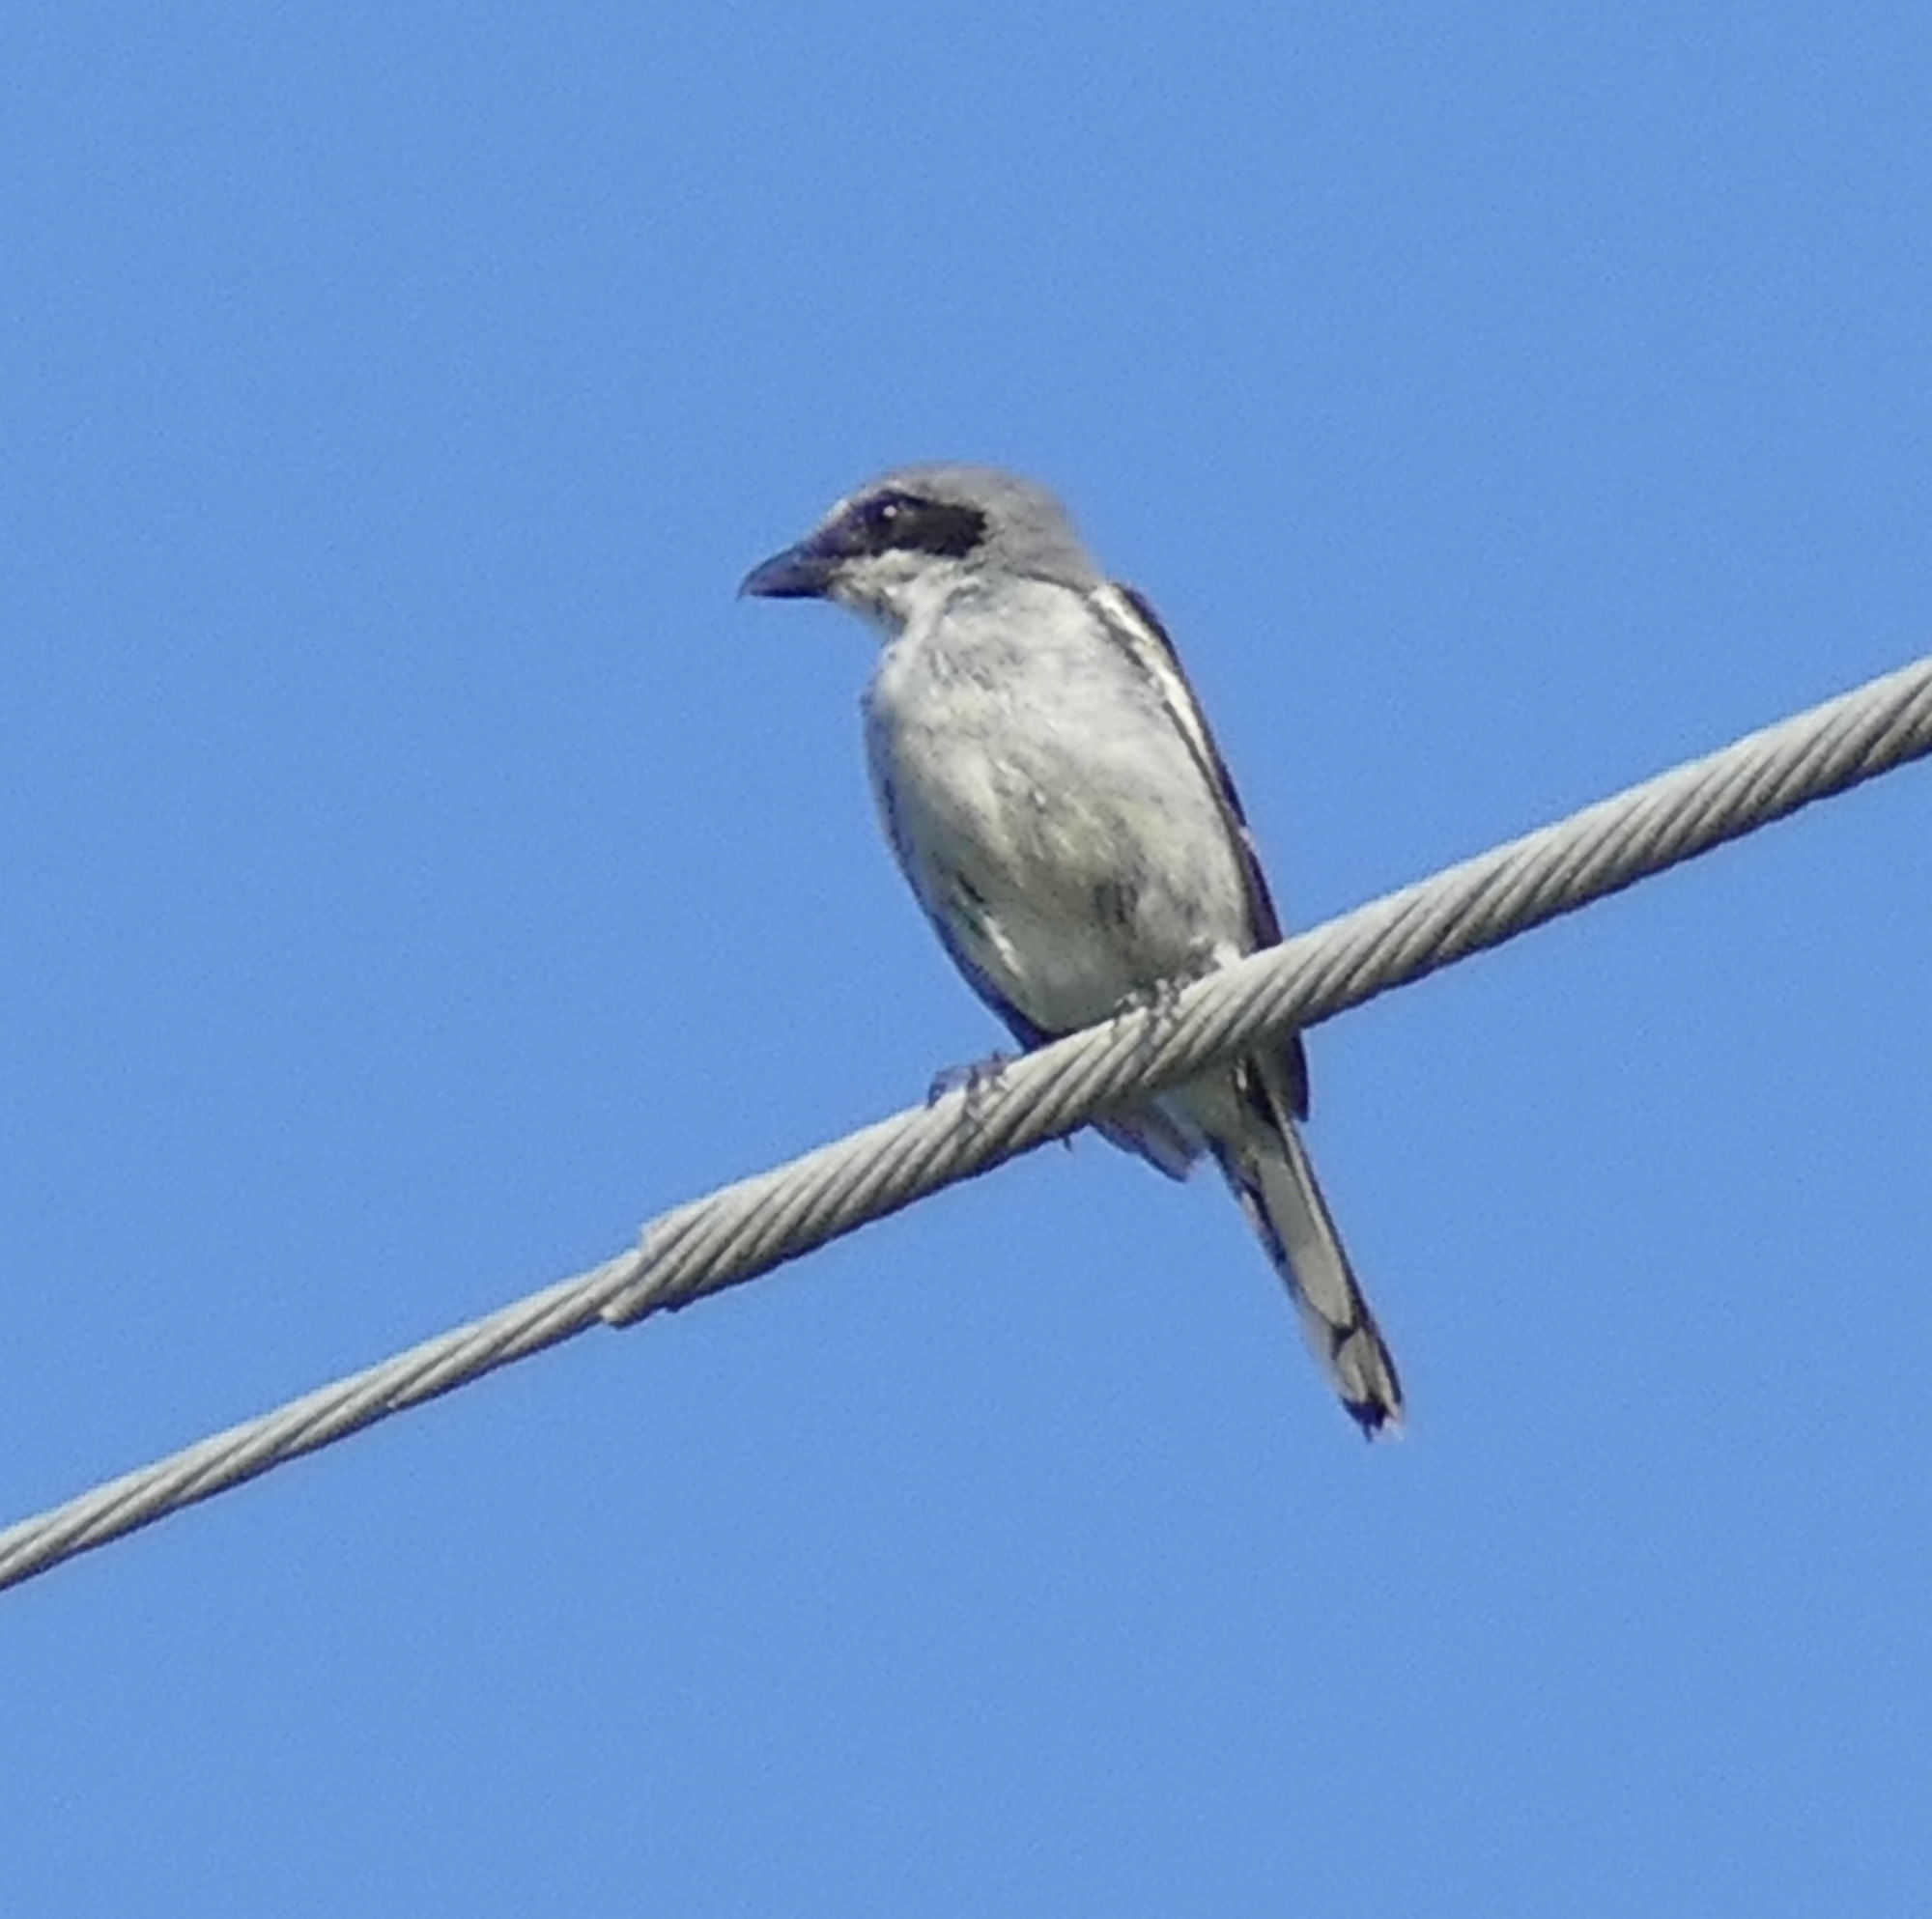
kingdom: Animalia
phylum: Chordata
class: Aves
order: Passeriformes
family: Laniidae
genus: Lanius
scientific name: Lanius ludovicianus
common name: Loggerhead shrike
